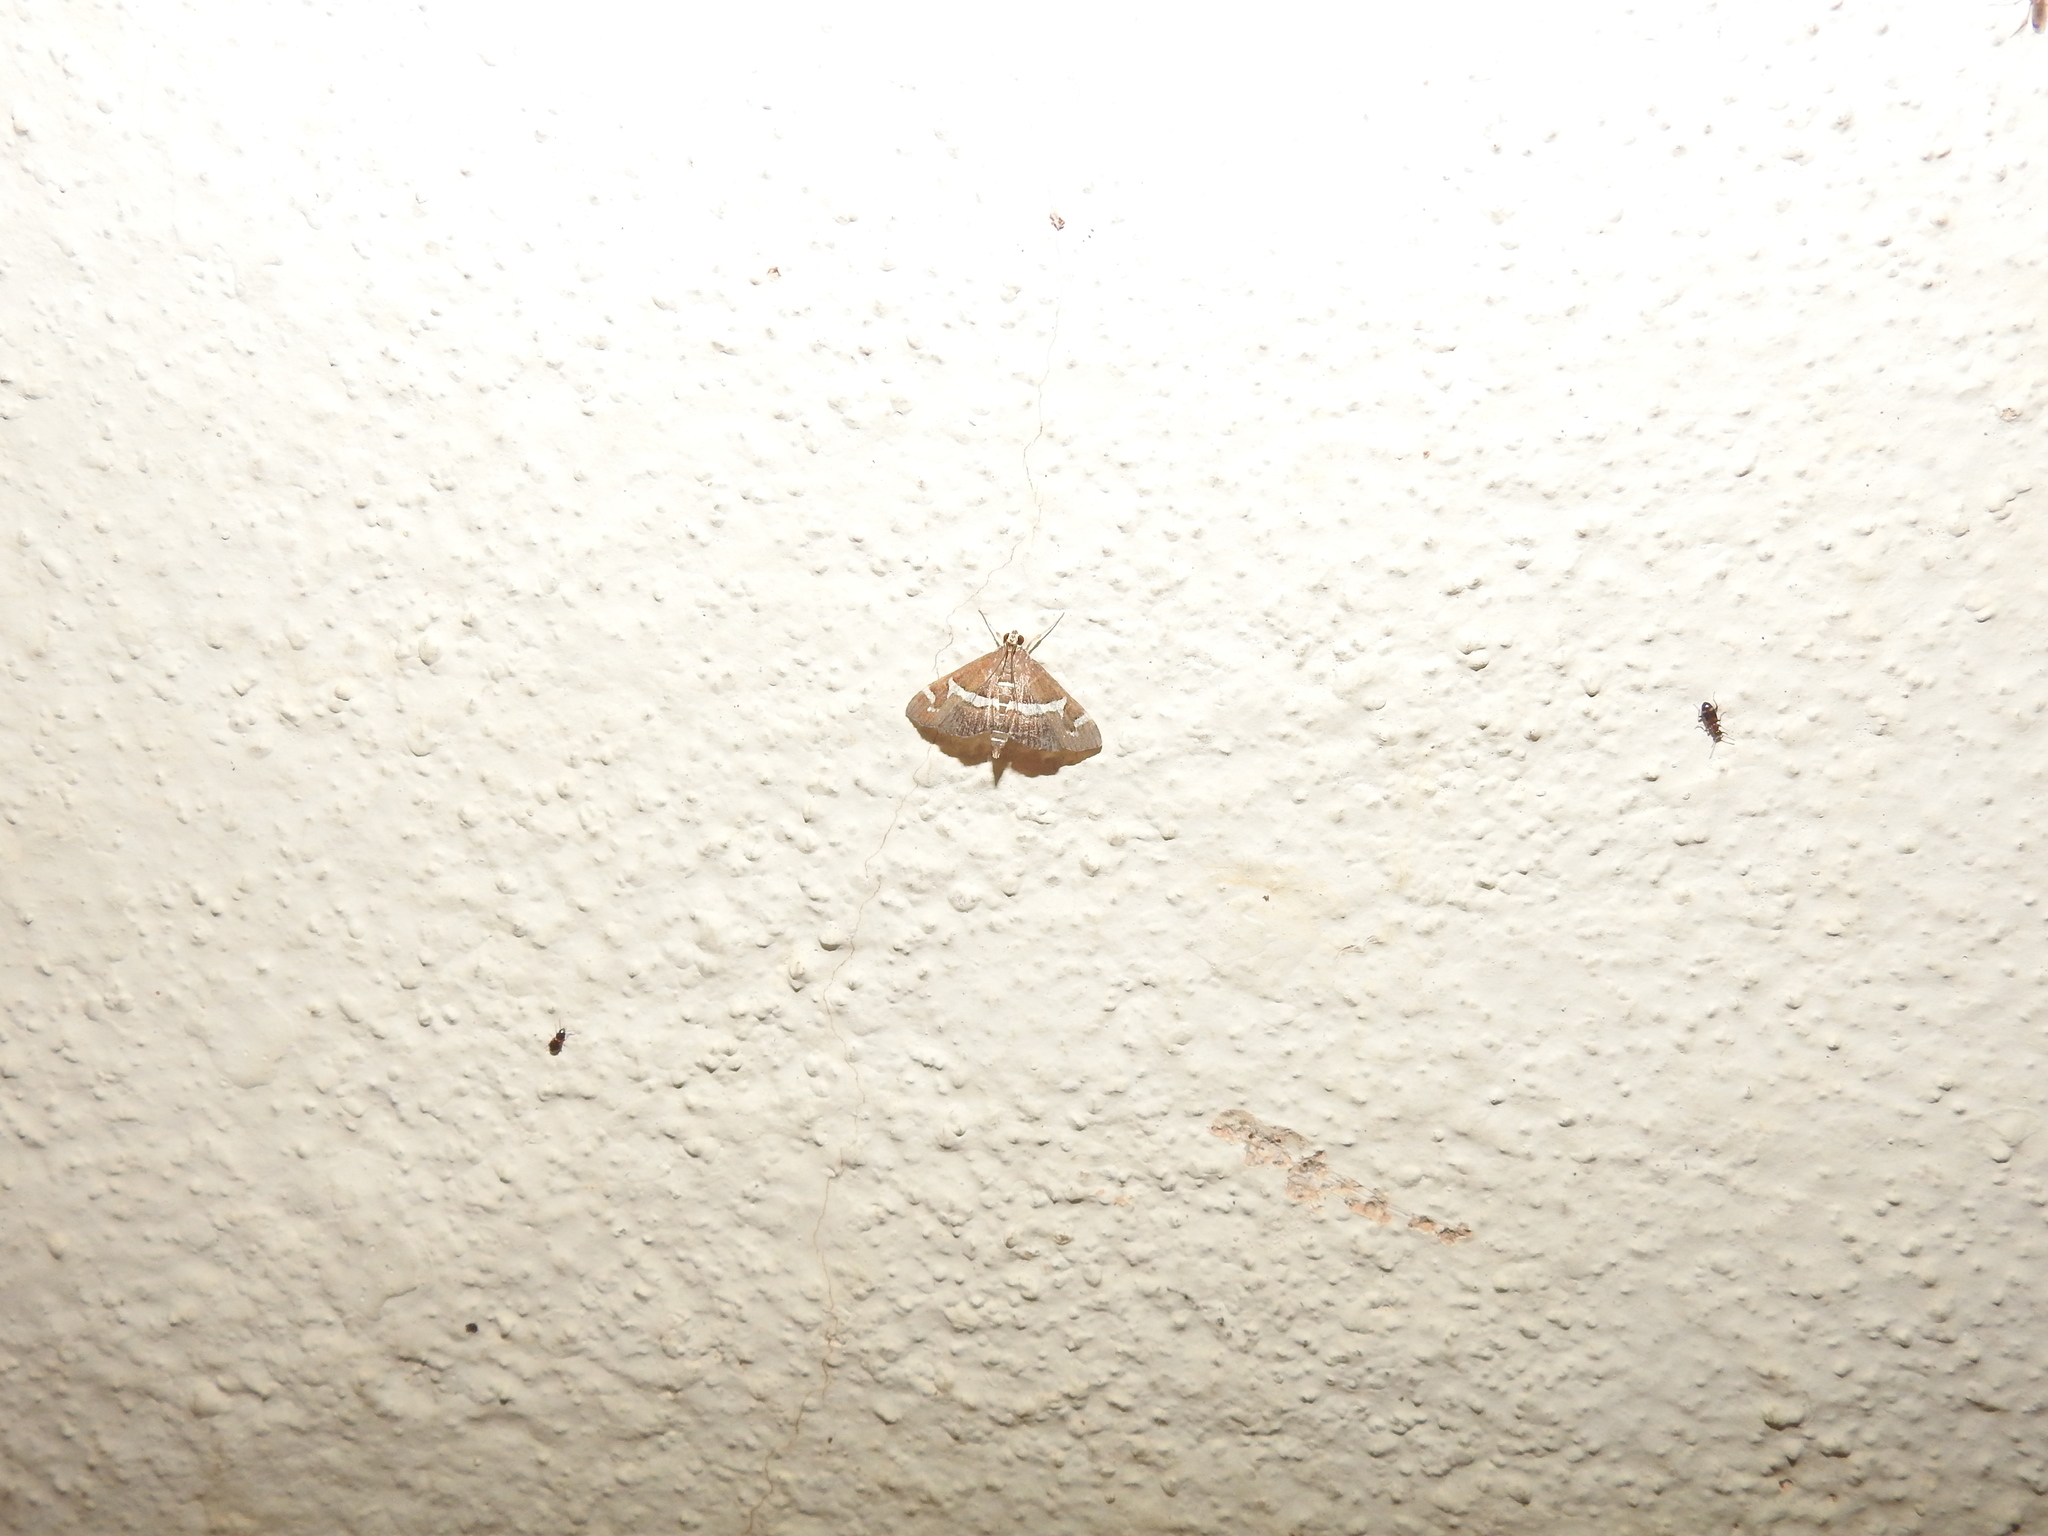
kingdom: Animalia
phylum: Arthropoda
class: Insecta
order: Lepidoptera
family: Crambidae
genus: Spoladea
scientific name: Spoladea recurvalis
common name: Beet webworm moth
